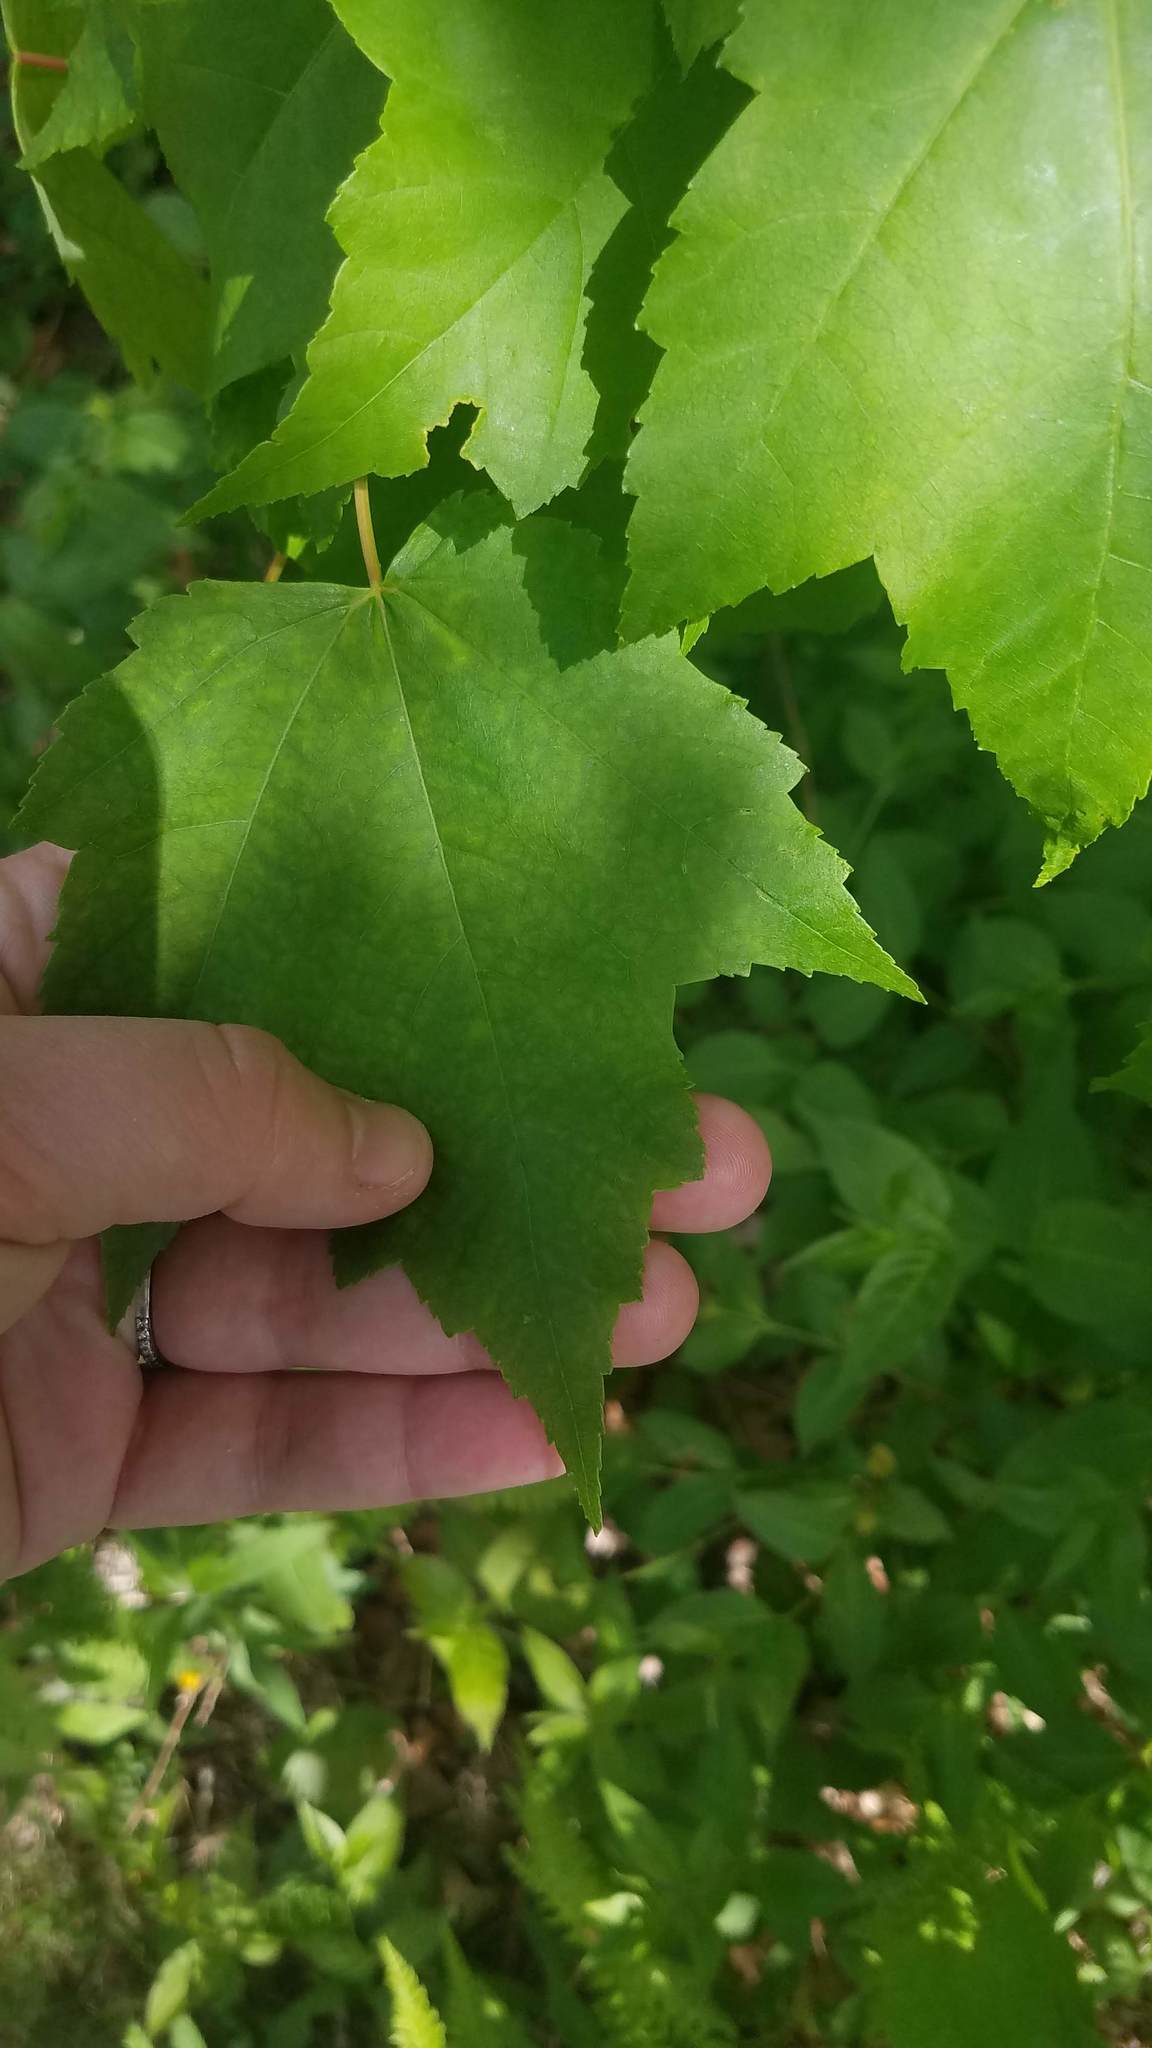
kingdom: Plantae
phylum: Tracheophyta
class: Magnoliopsida
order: Sapindales
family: Sapindaceae
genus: Acer
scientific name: Acer rubrum
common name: Red maple
